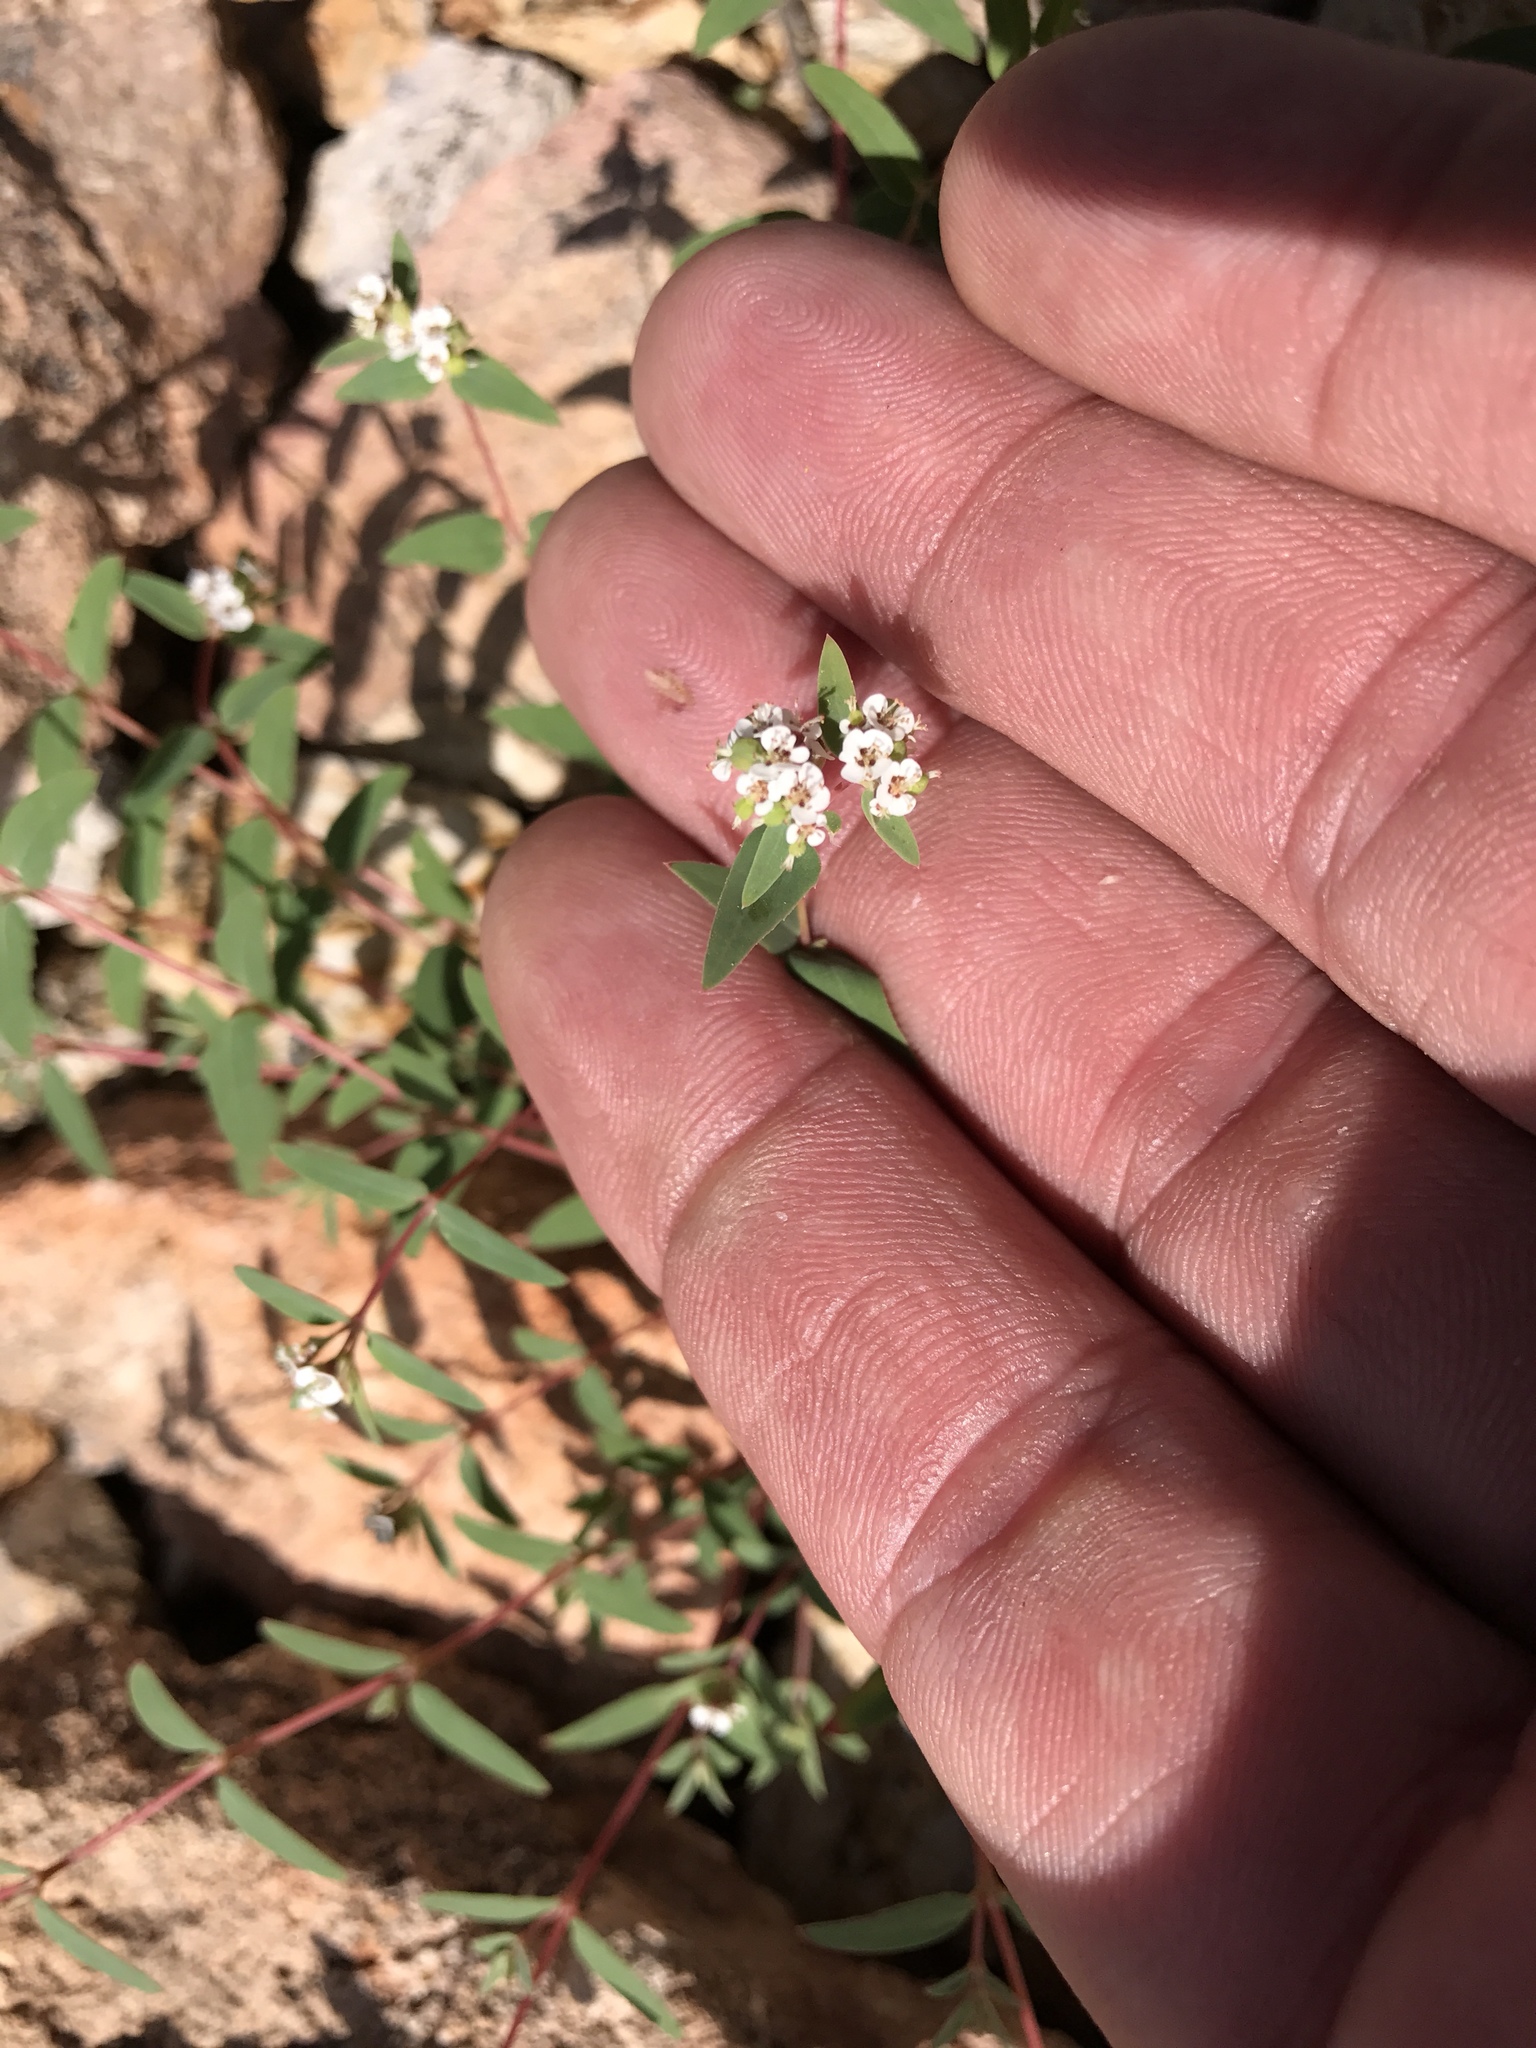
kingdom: Plantae
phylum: Tracheophyta
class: Magnoliopsida
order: Malpighiales
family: Euphorbiaceae
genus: Euphorbia
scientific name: Euphorbia capitellata
